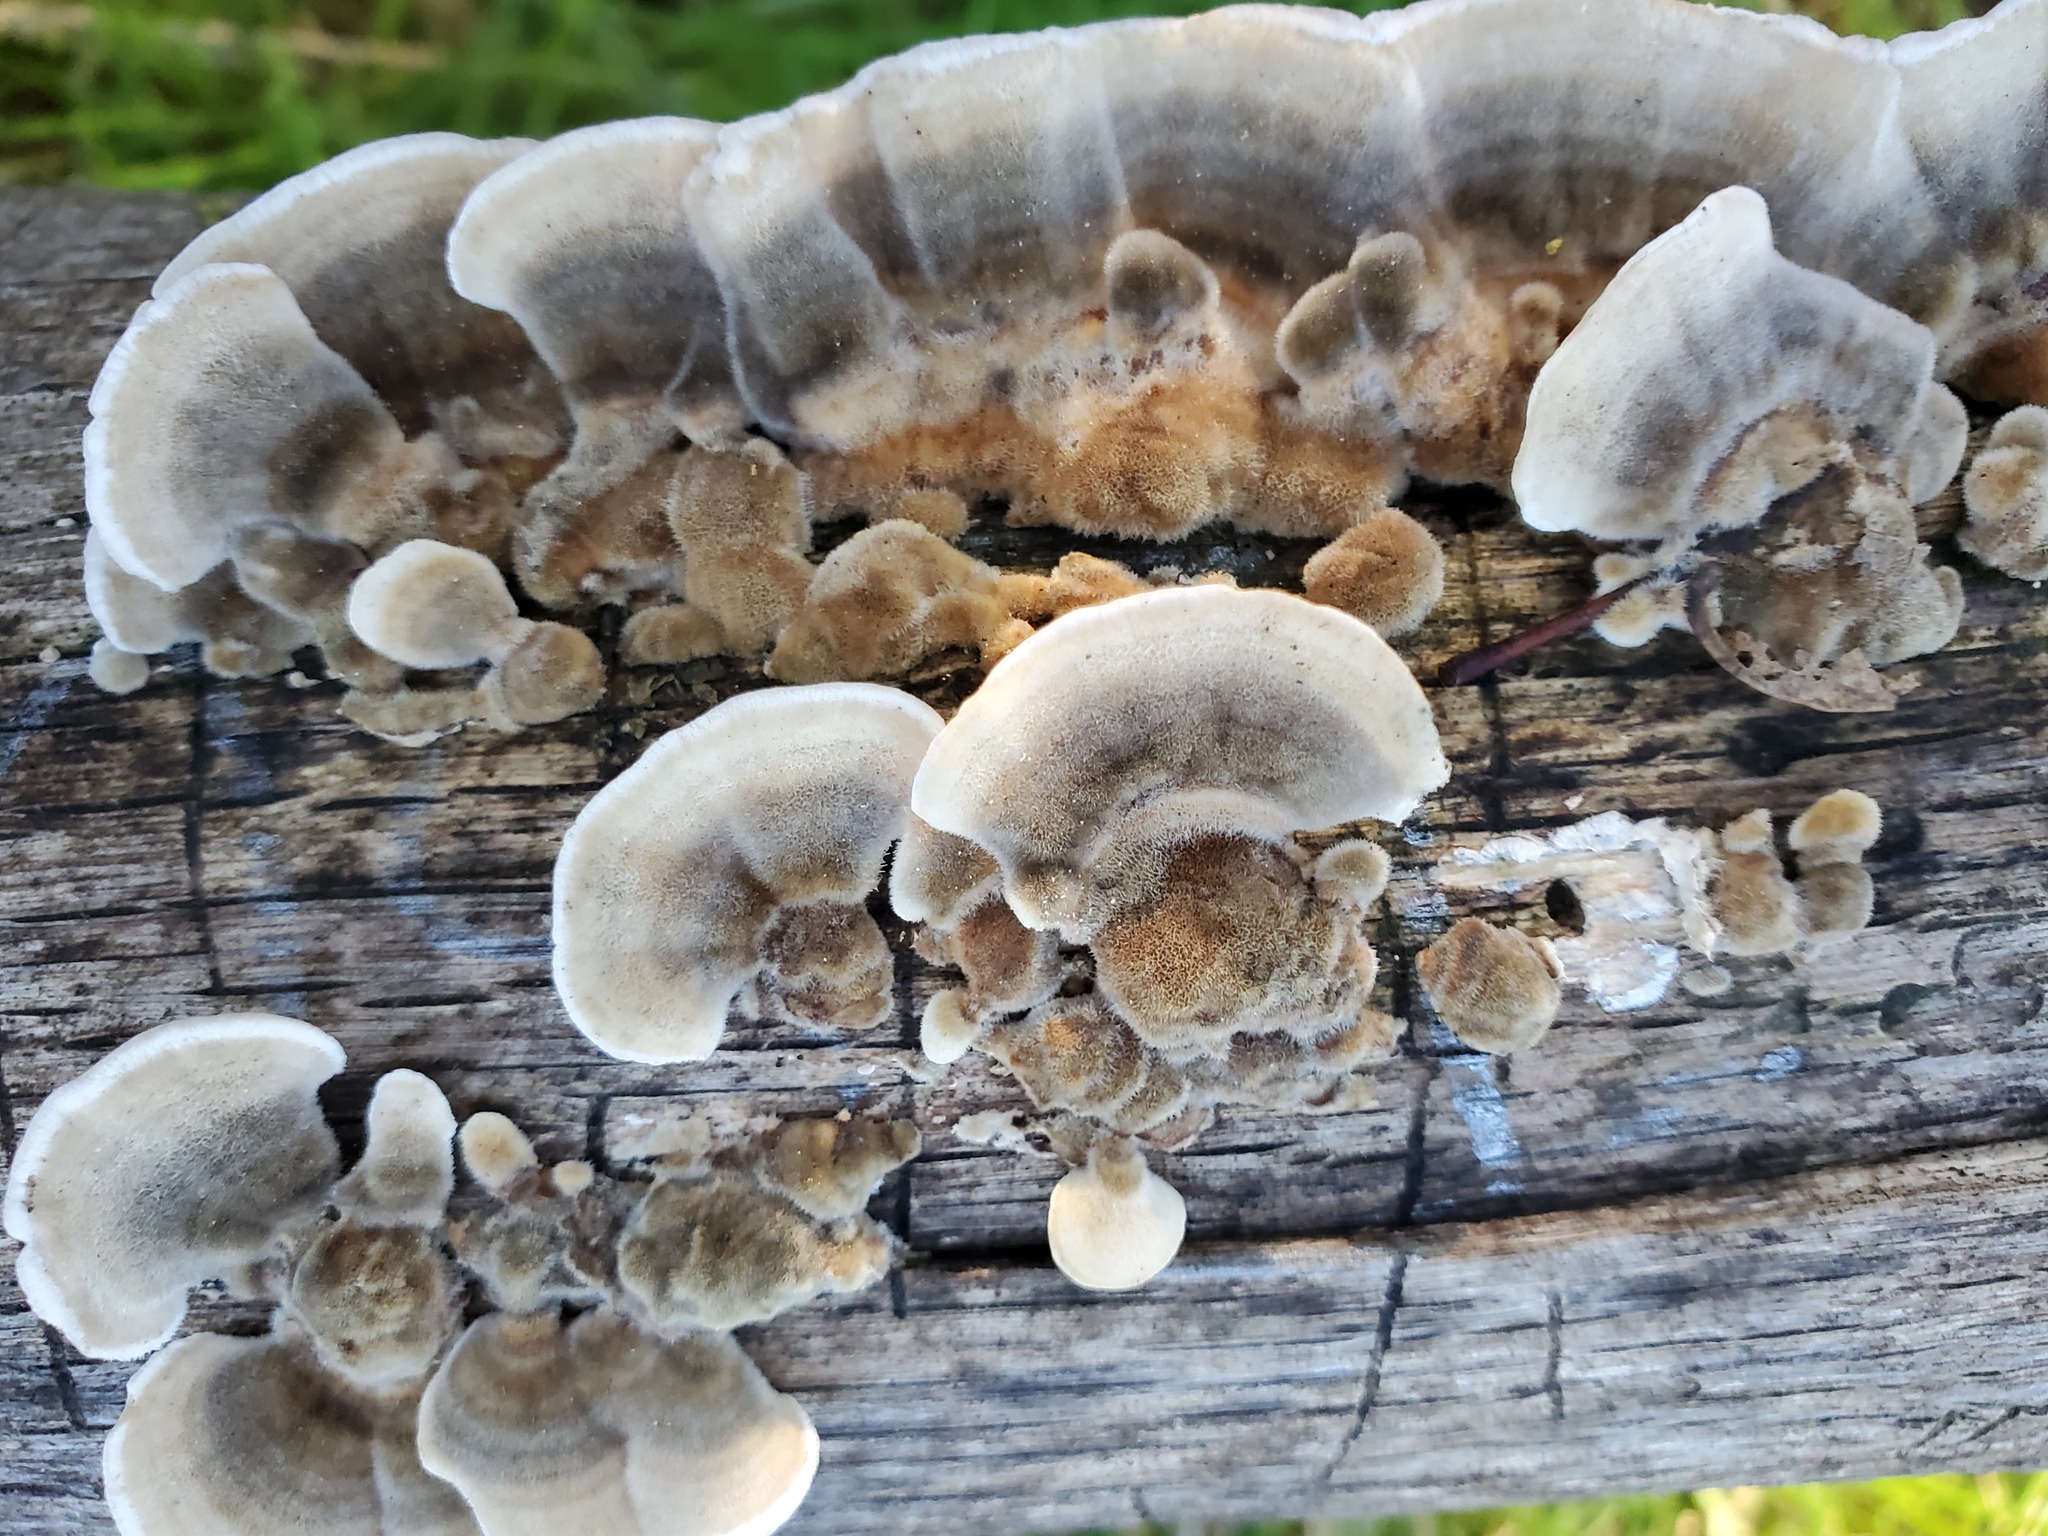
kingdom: Fungi
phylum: Basidiomycota
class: Agaricomycetes
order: Polyporales
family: Polyporaceae
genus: Trametes
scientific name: Trametes versicolor
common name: Turkeytail
